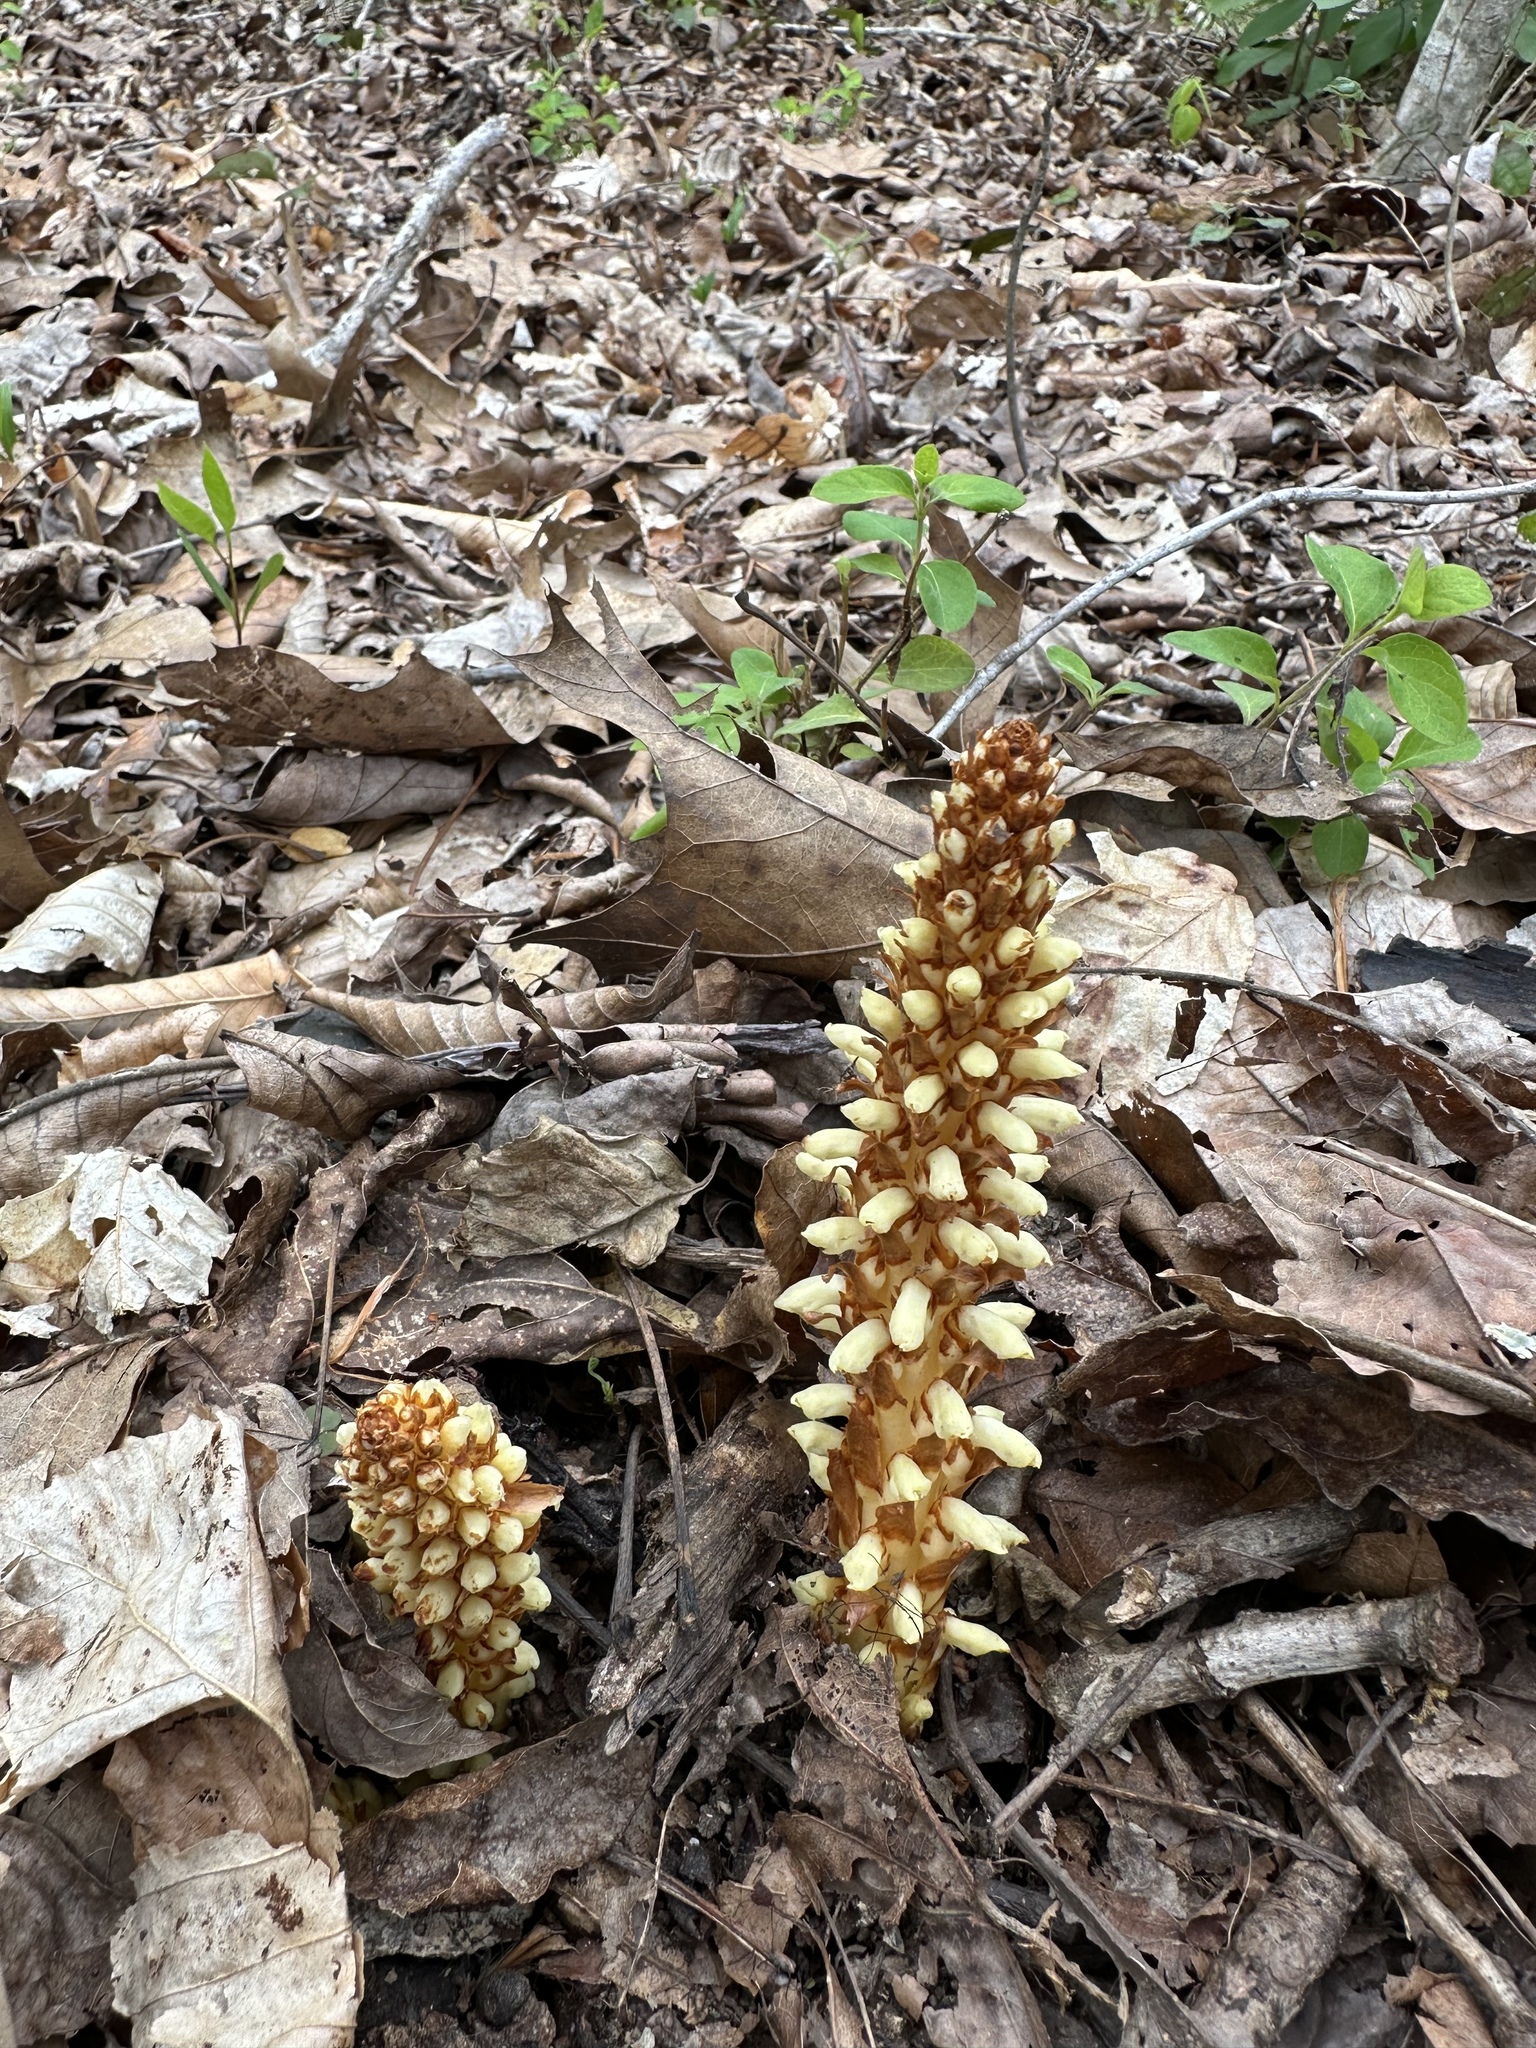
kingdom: Plantae
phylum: Tracheophyta
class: Magnoliopsida
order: Lamiales
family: Orobanchaceae
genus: Conopholis
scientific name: Conopholis americana
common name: American cancer-root
